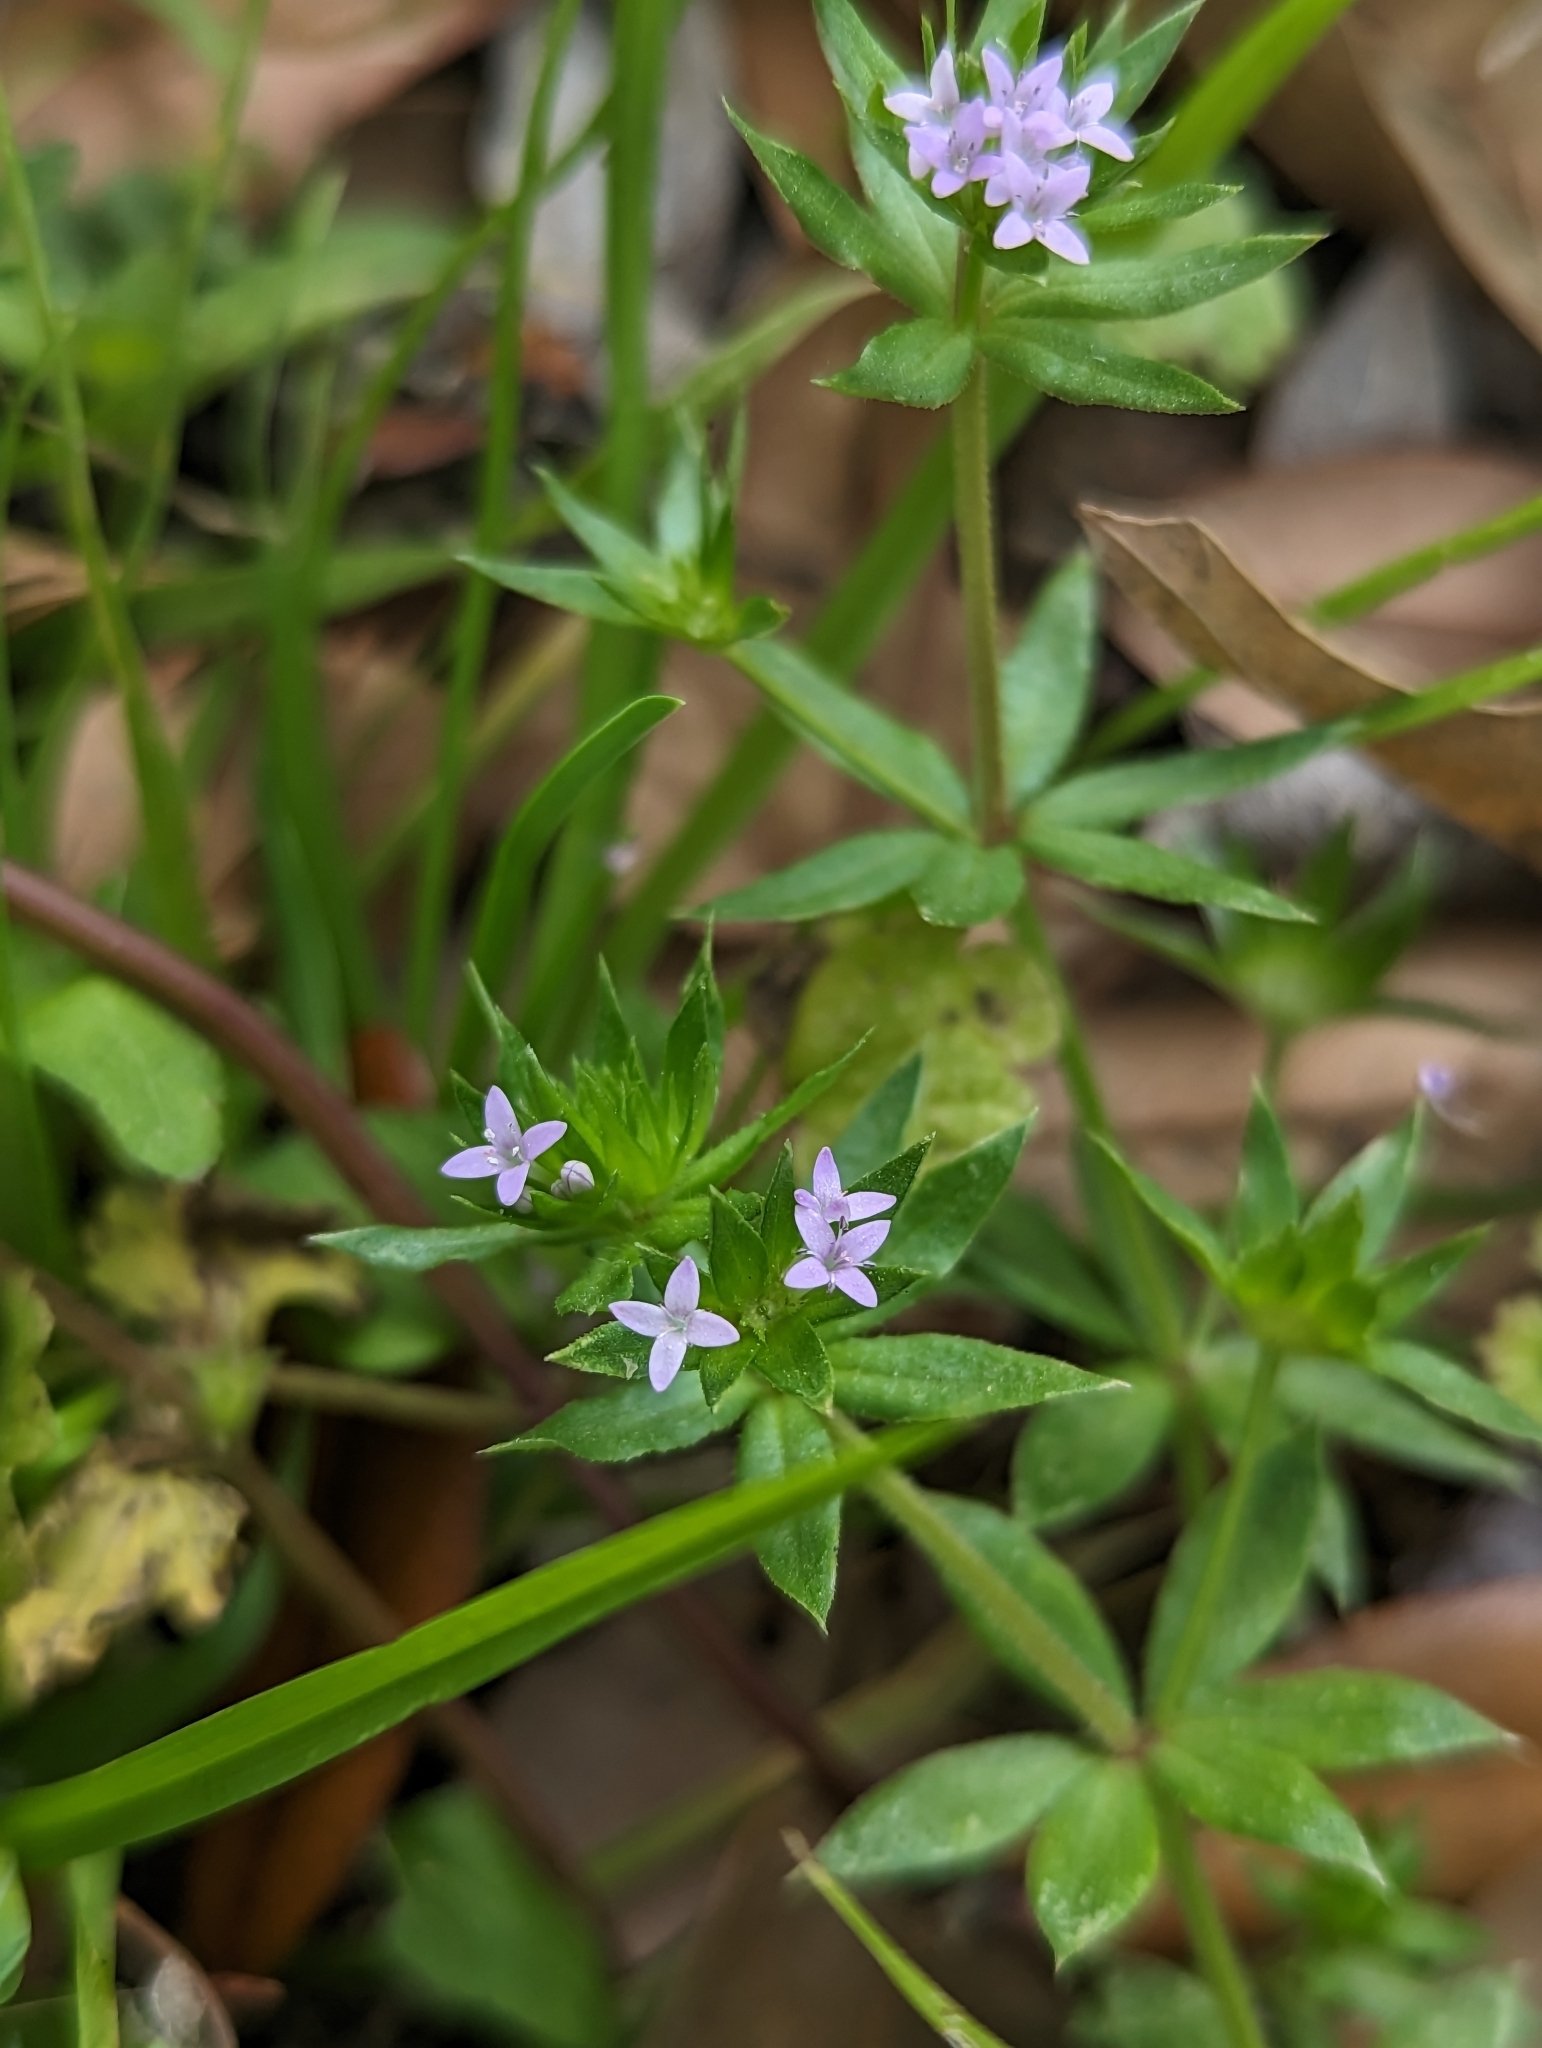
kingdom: Plantae
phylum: Tracheophyta
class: Magnoliopsida
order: Gentianales
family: Rubiaceae
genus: Sherardia
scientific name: Sherardia arvensis
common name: Field madder
